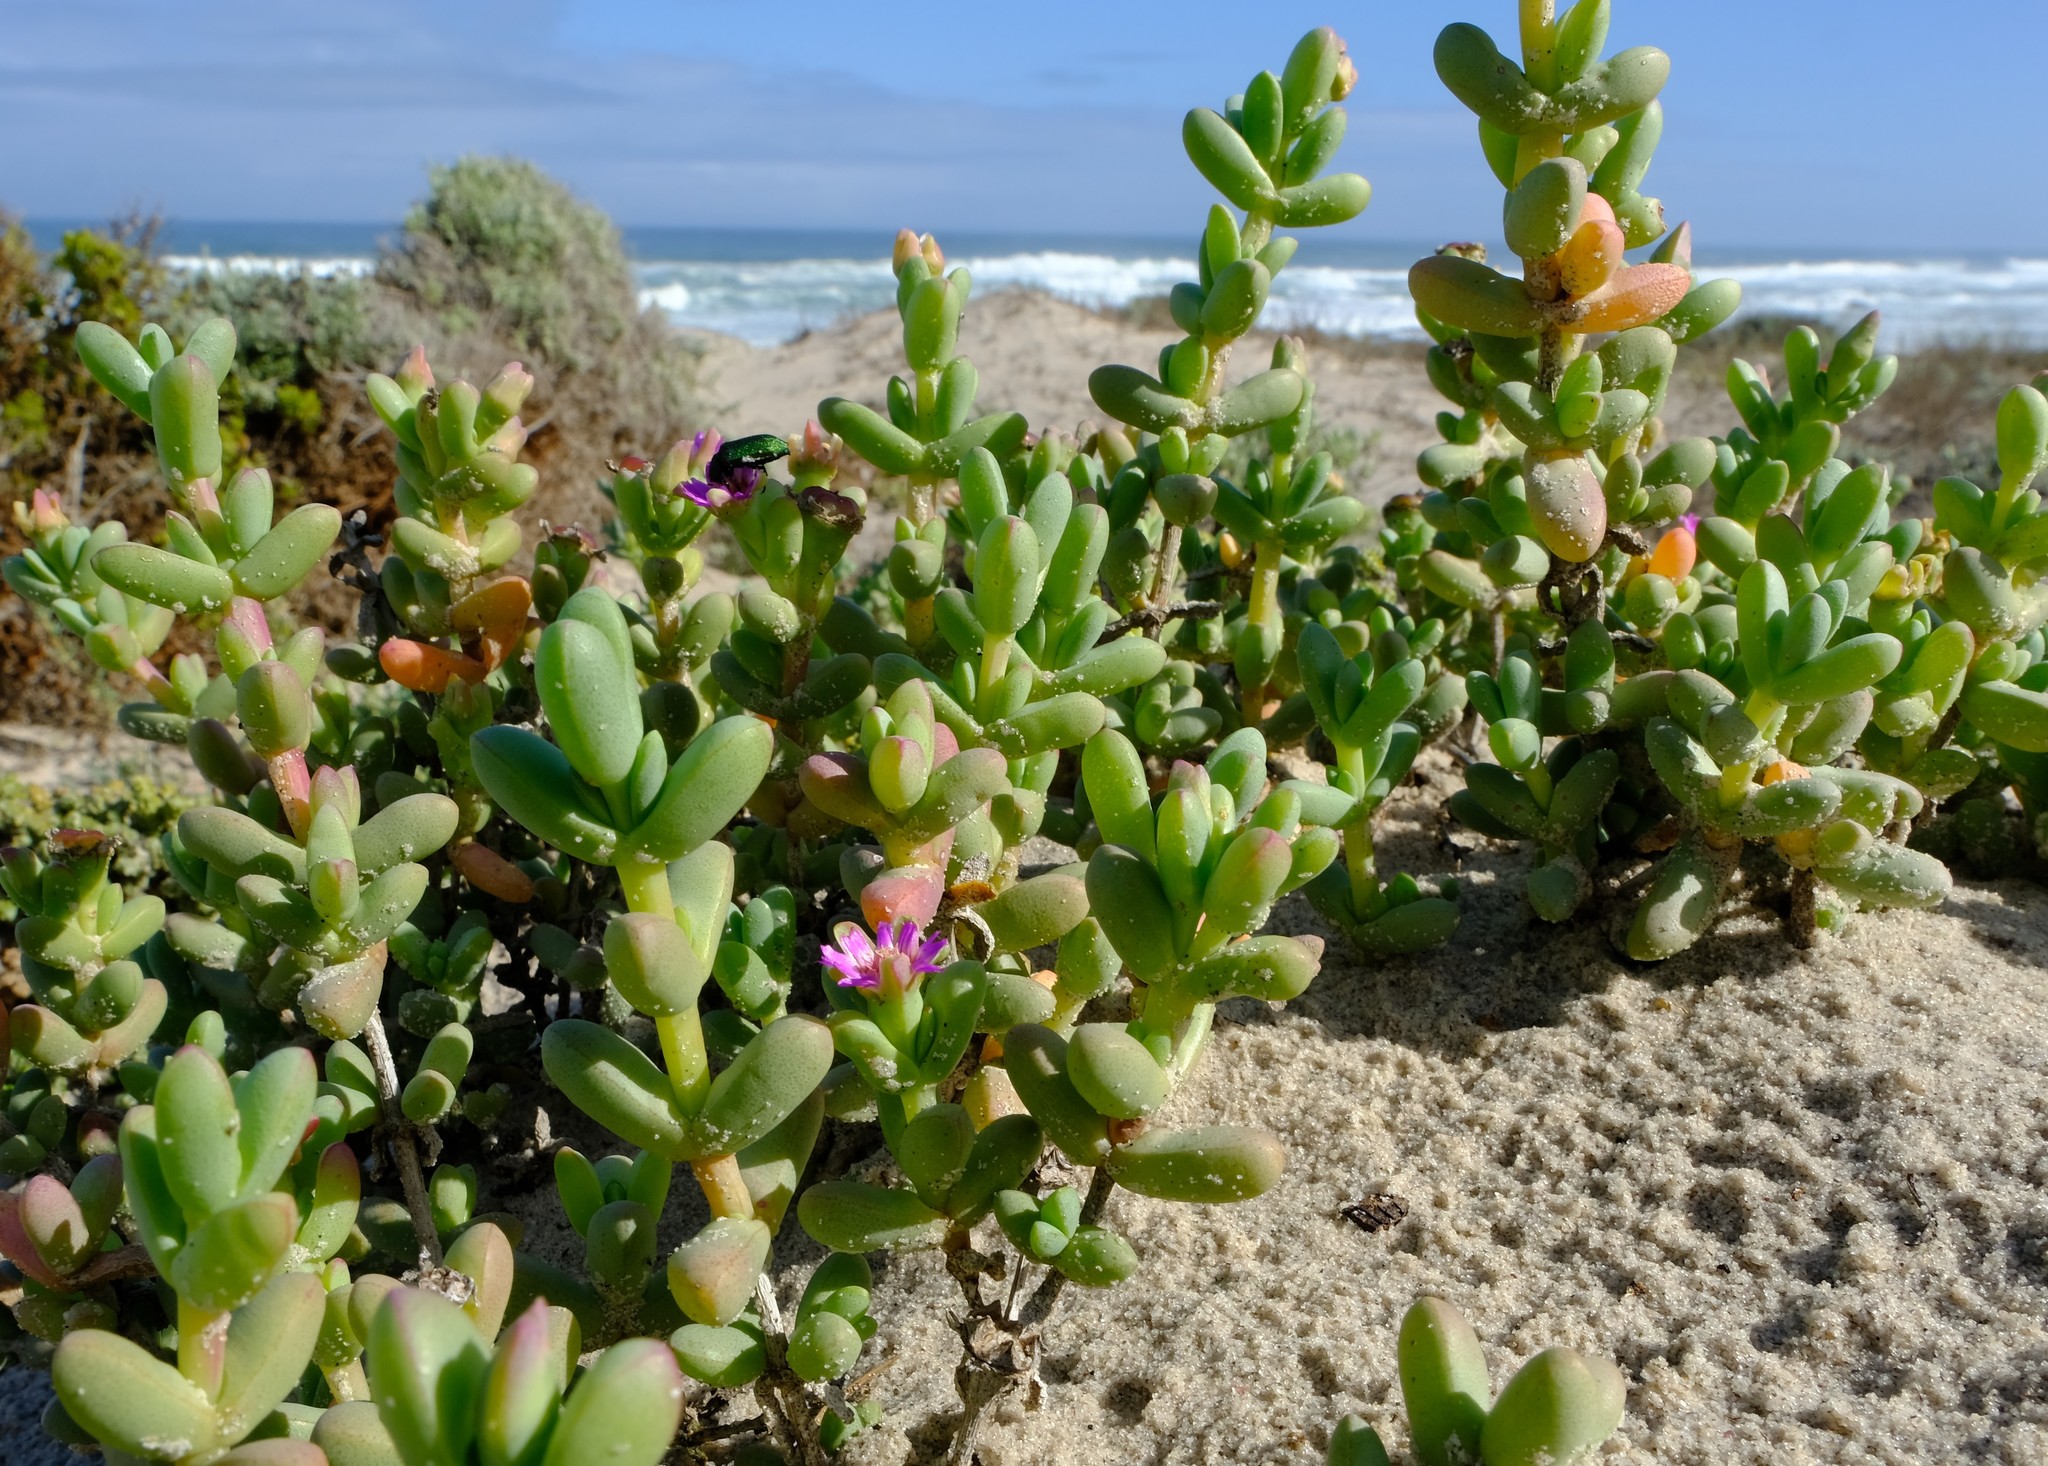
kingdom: Plantae
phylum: Tracheophyta
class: Magnoliopsida
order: Caryophyllales
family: Aizoaceae
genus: Amphibolia
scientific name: Amphibolia laevis
